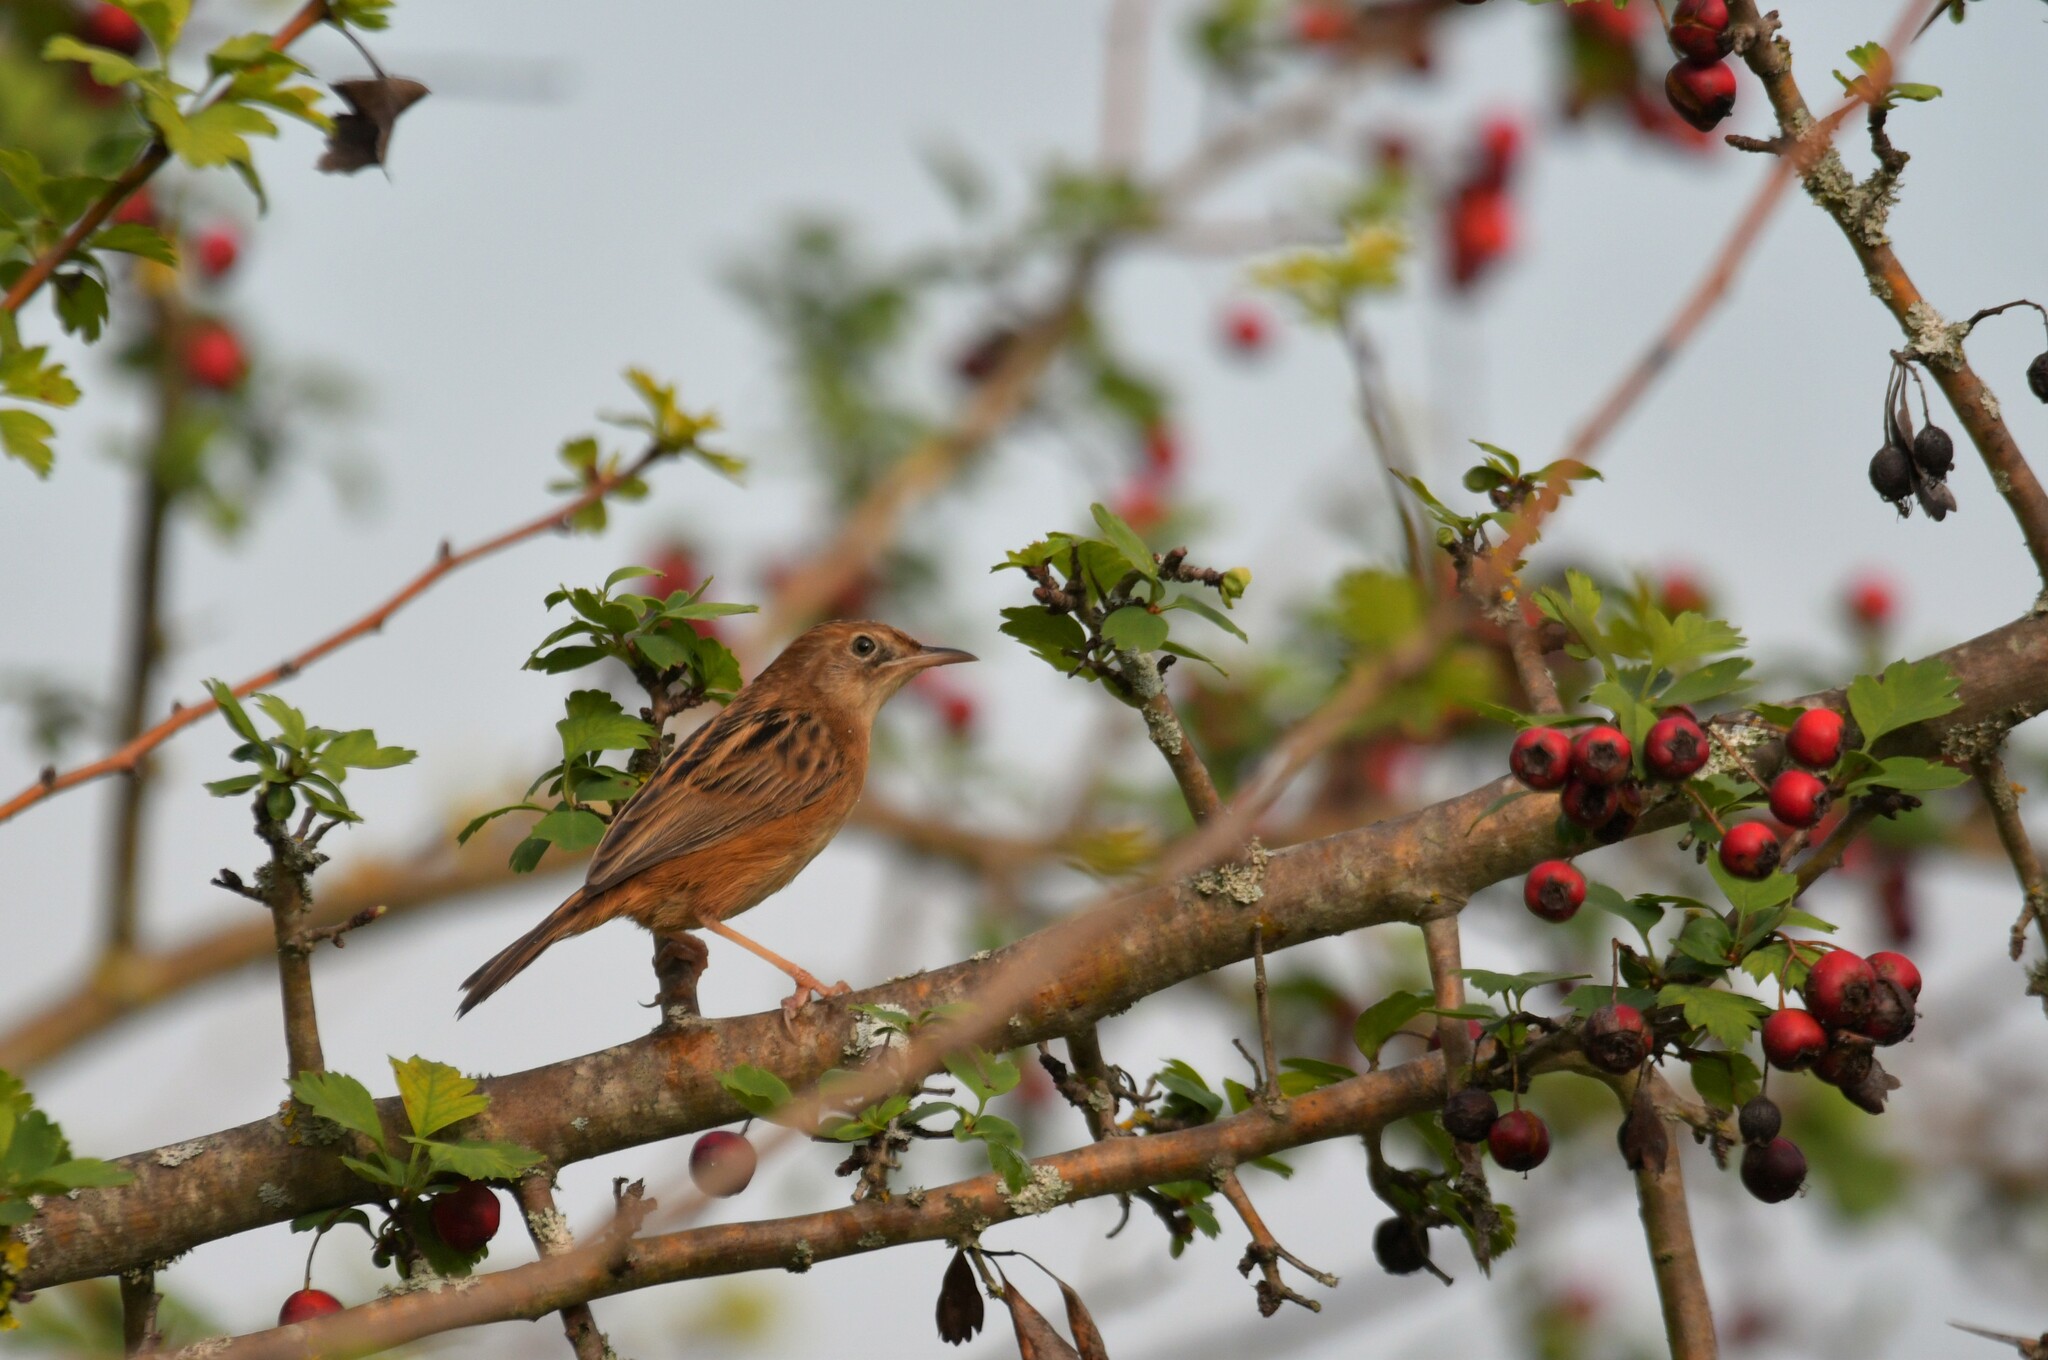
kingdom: Animalia
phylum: Chordata
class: Aves
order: Passeriformes
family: Cisticolidae
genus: Cisticola
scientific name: Cisticola juncidis
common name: Zitting cisticola
